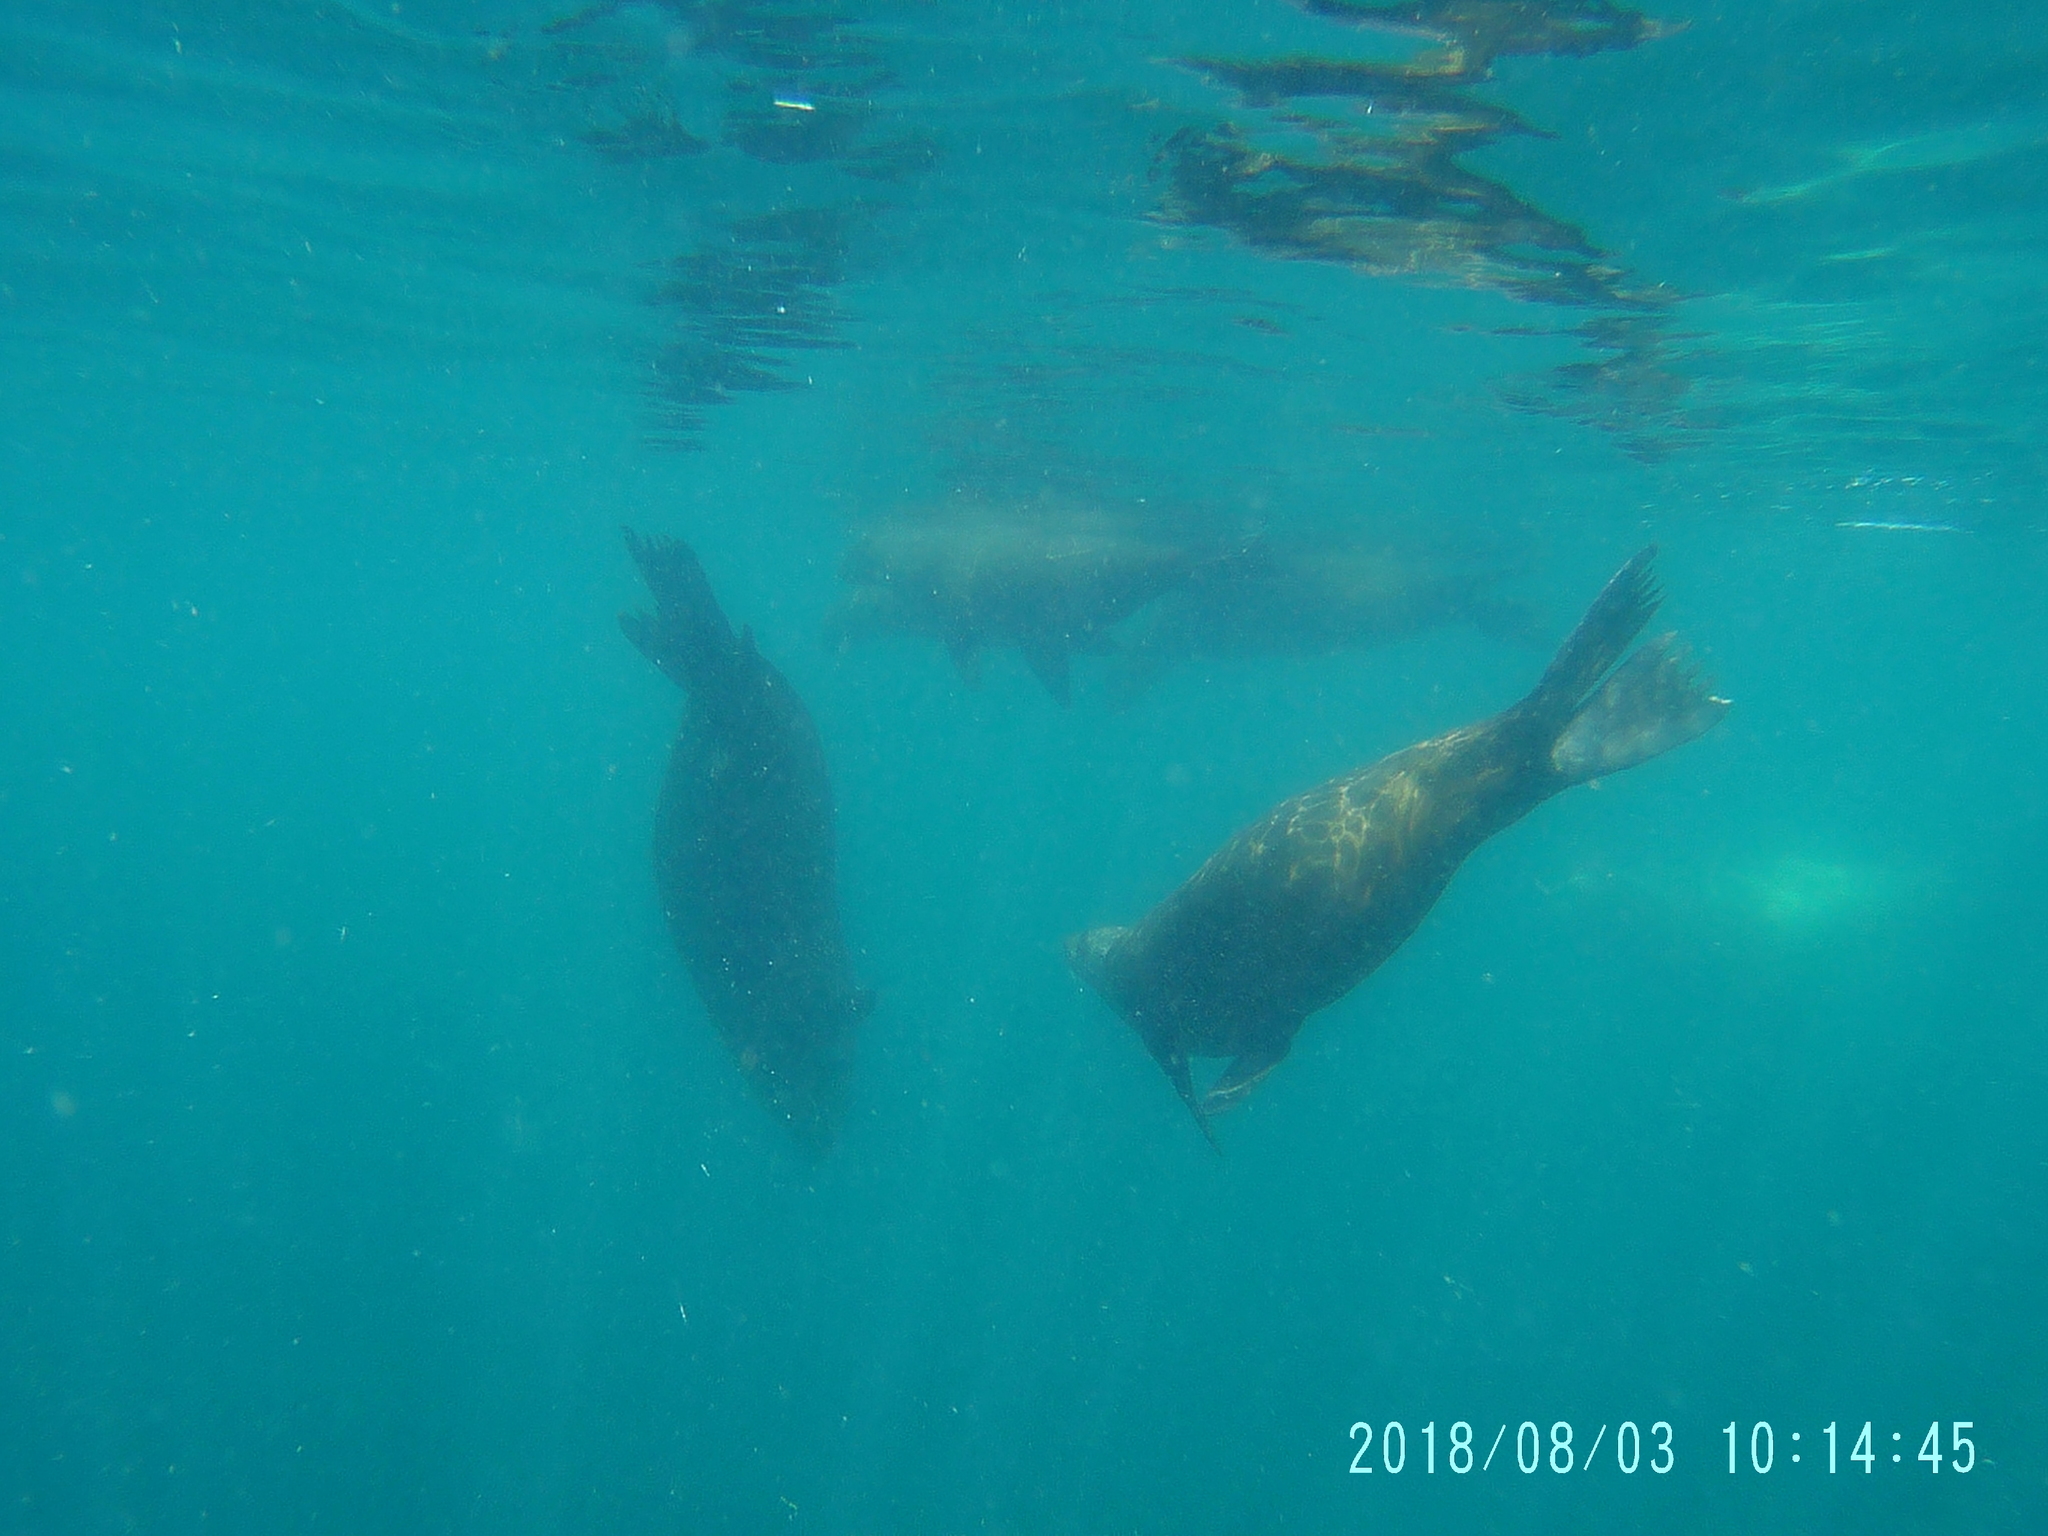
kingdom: Animalia
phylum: Chordata
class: Mammalia
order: Carnivora
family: Otariidae
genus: Zalophus
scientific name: Zalophus californianus
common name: California sea lion
